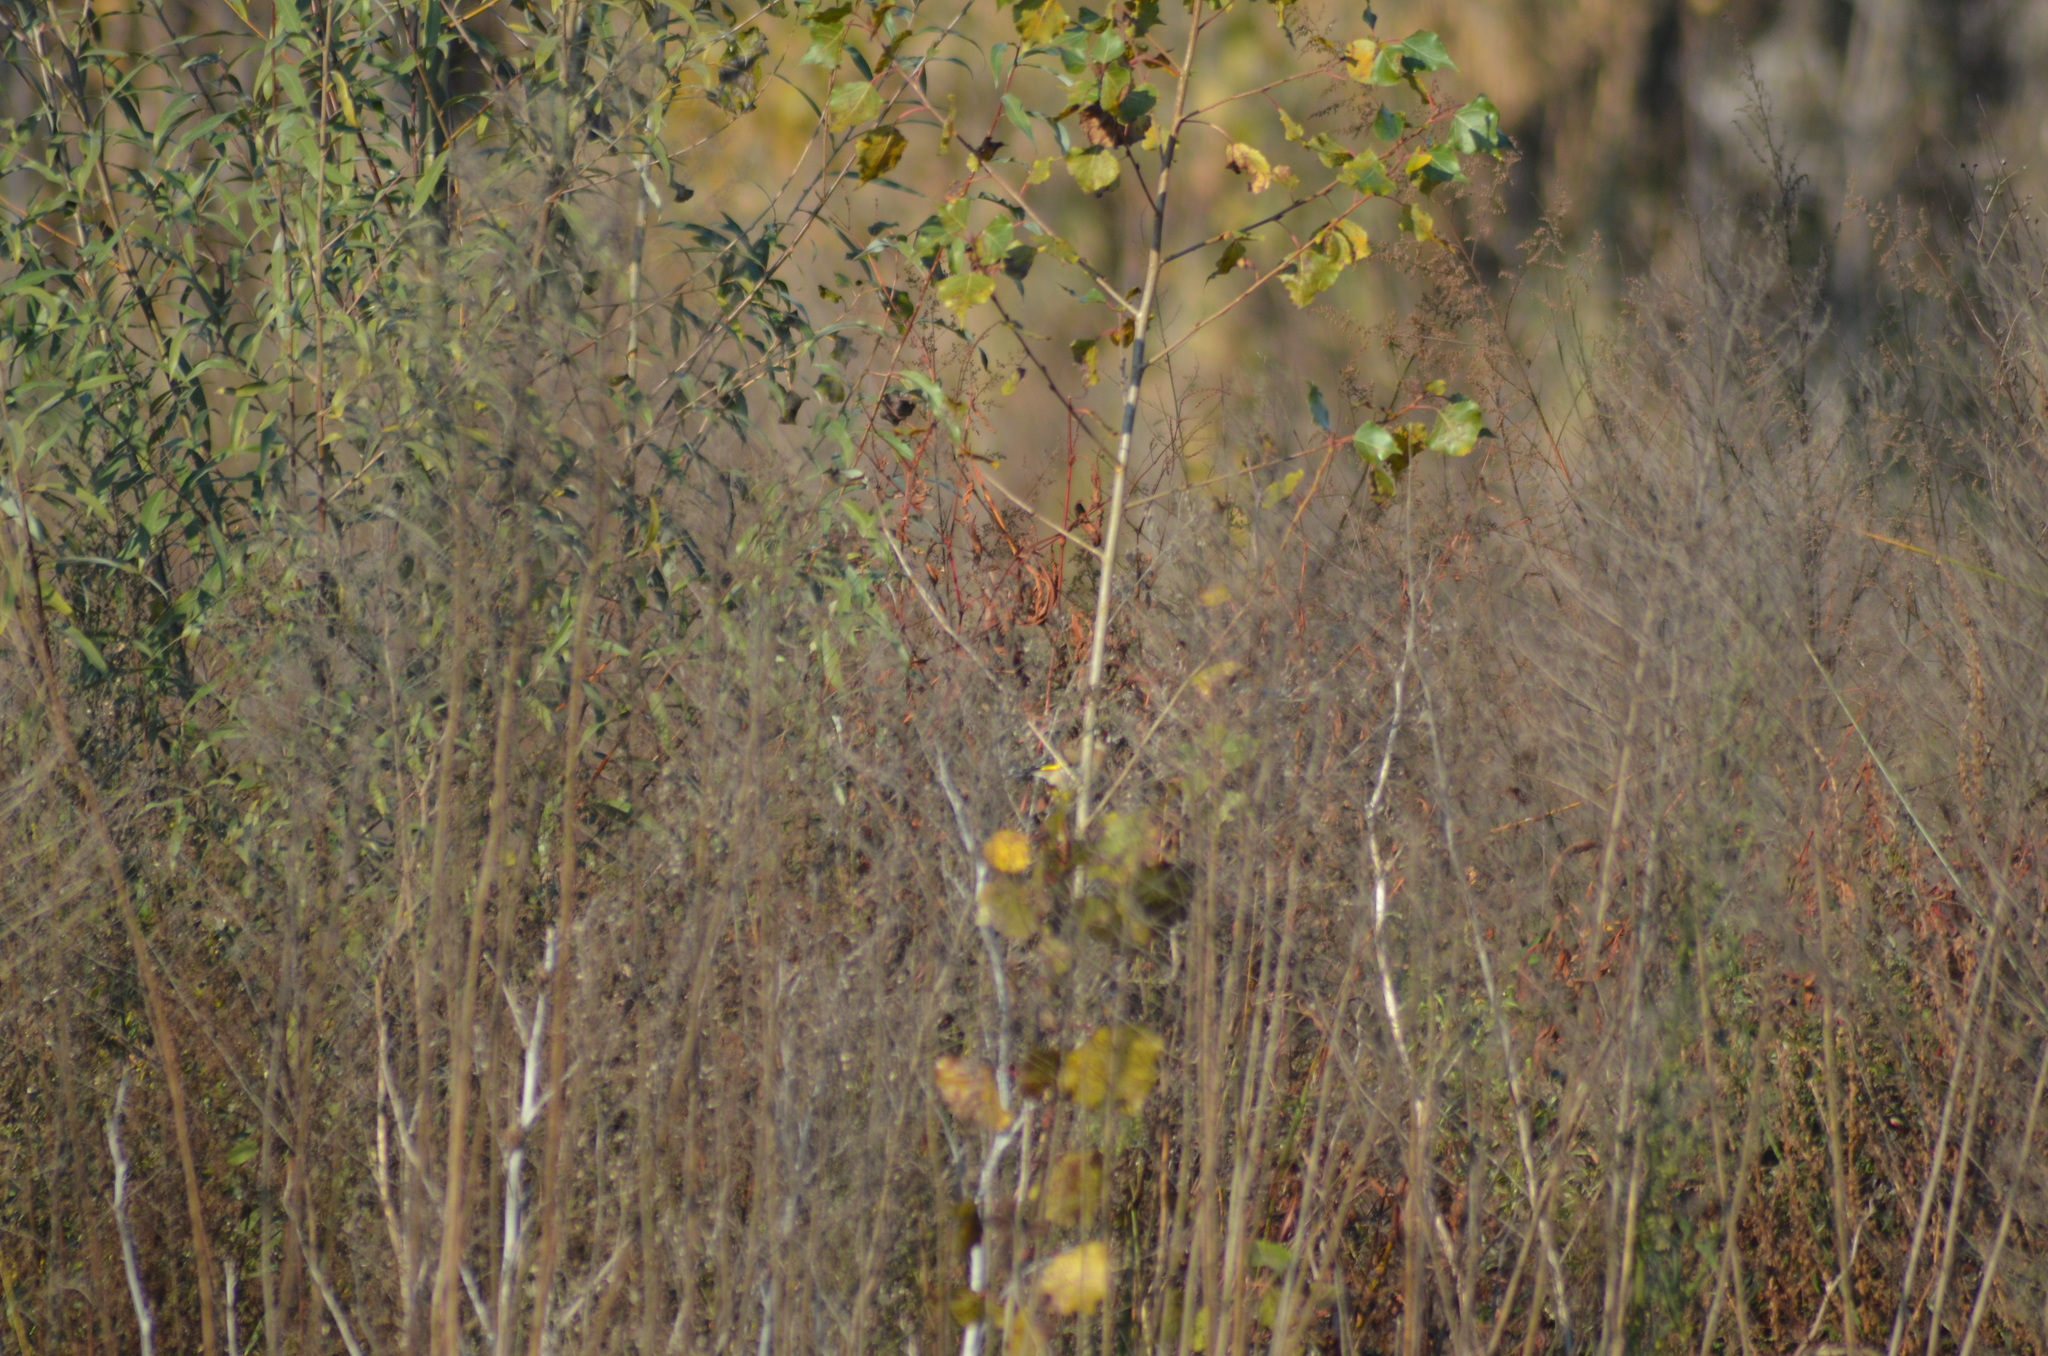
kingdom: Animalia
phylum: Chordata
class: Aves
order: Passeriformes
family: Fringillidae
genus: Carduelis
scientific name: Carduelis carduelis
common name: European goldfinch
